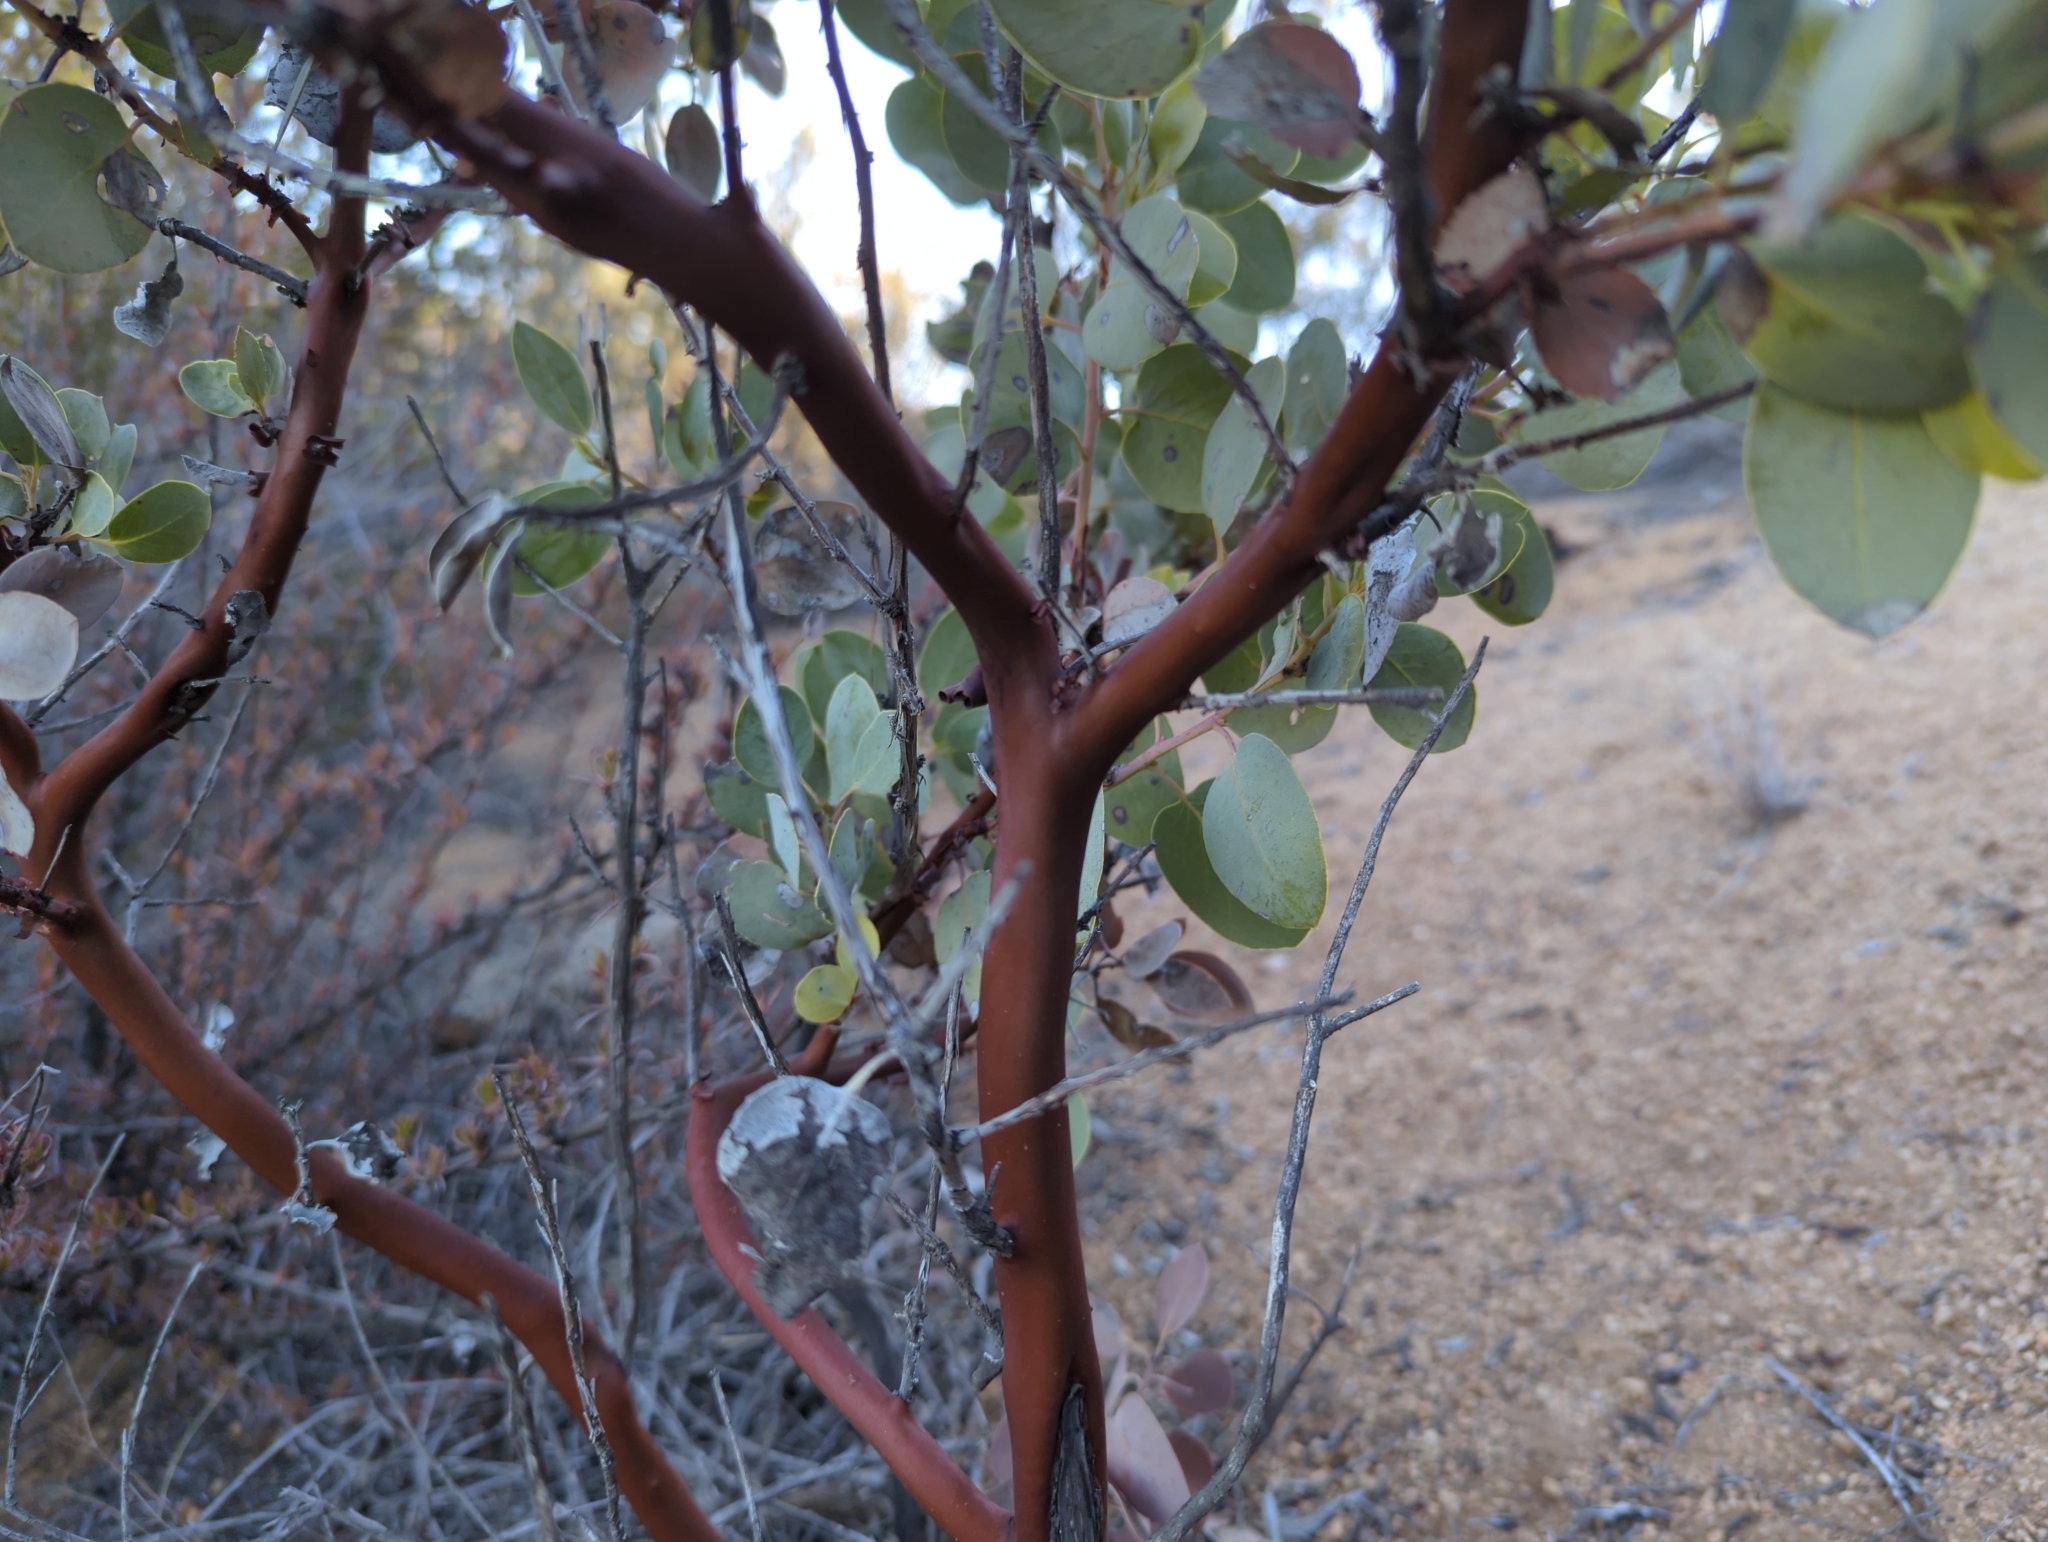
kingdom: Plantae
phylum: Tracheophyta
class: Magnoliopsida
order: Ericales
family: Ericaceae
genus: Arctostaphylos
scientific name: Arctostaphylos glauca
